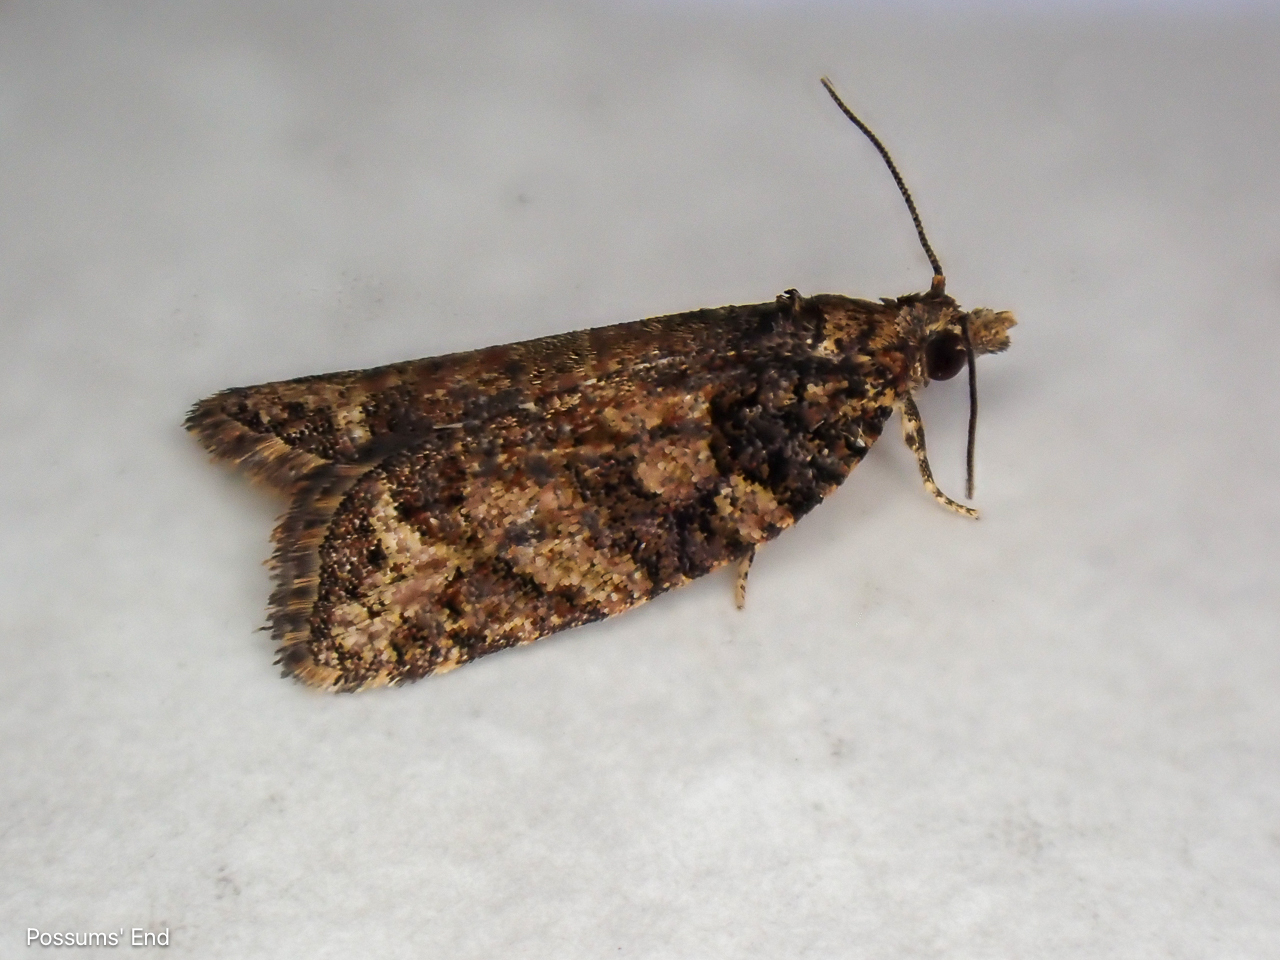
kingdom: Animalia
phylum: Arthropoda
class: Insecta
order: Lepidoptera
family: Tortricidae
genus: Capua
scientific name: Capua intractana
